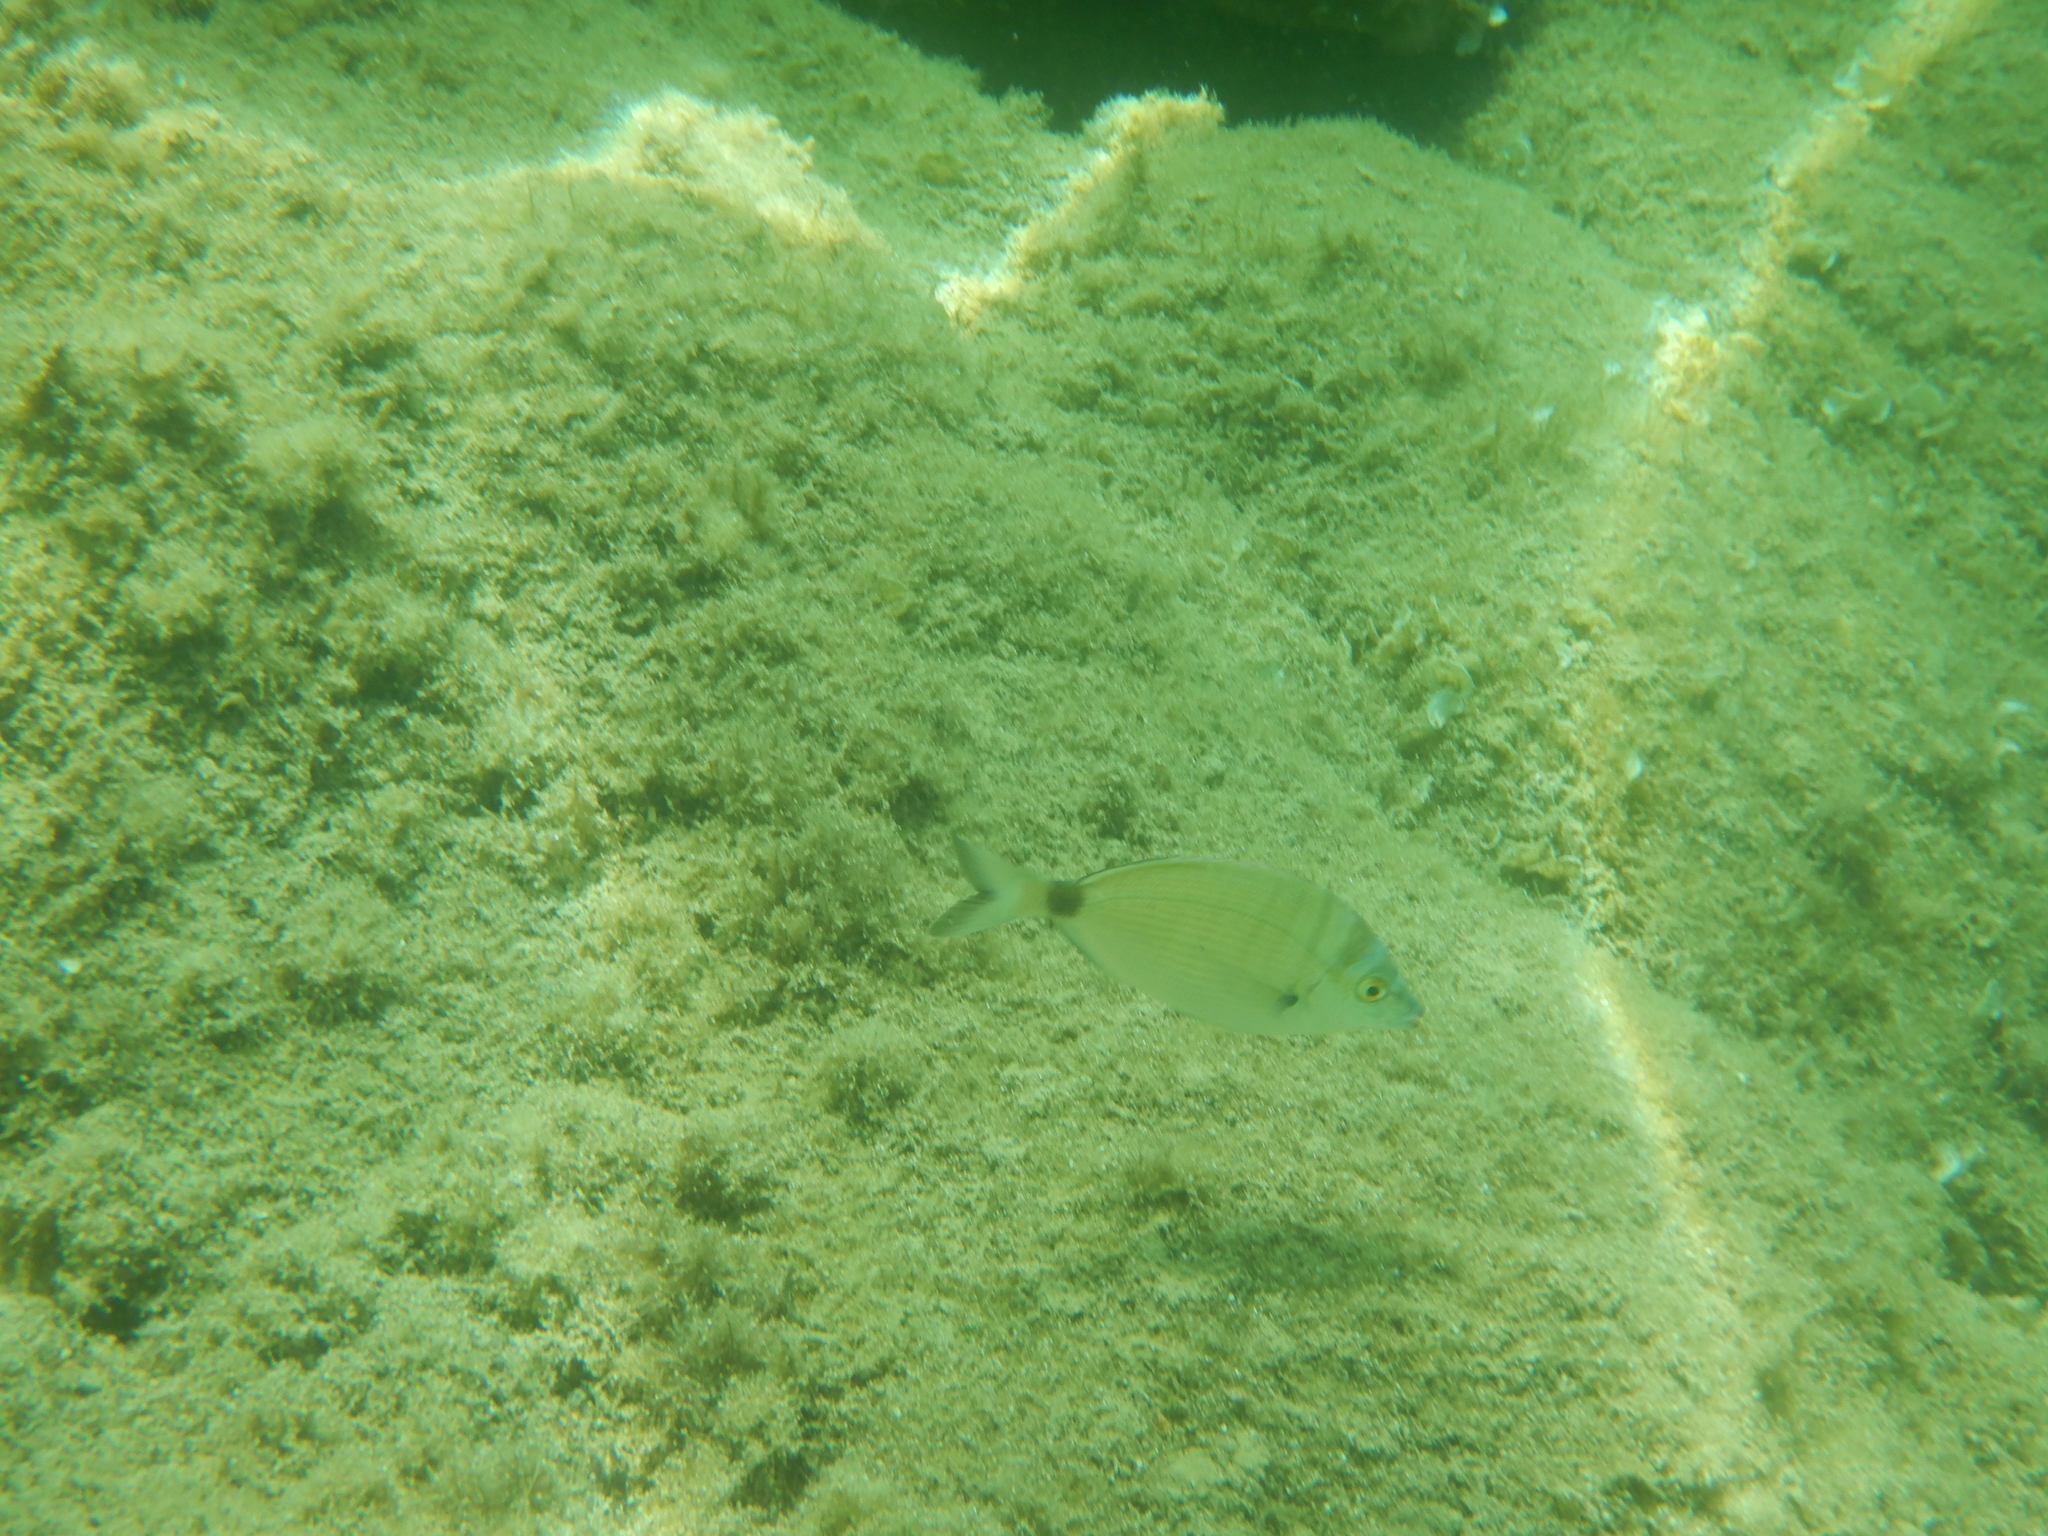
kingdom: Animalia
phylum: Chordata
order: Perciformes
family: Sparidae
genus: Diplodus
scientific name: Diplodus puntazzo
